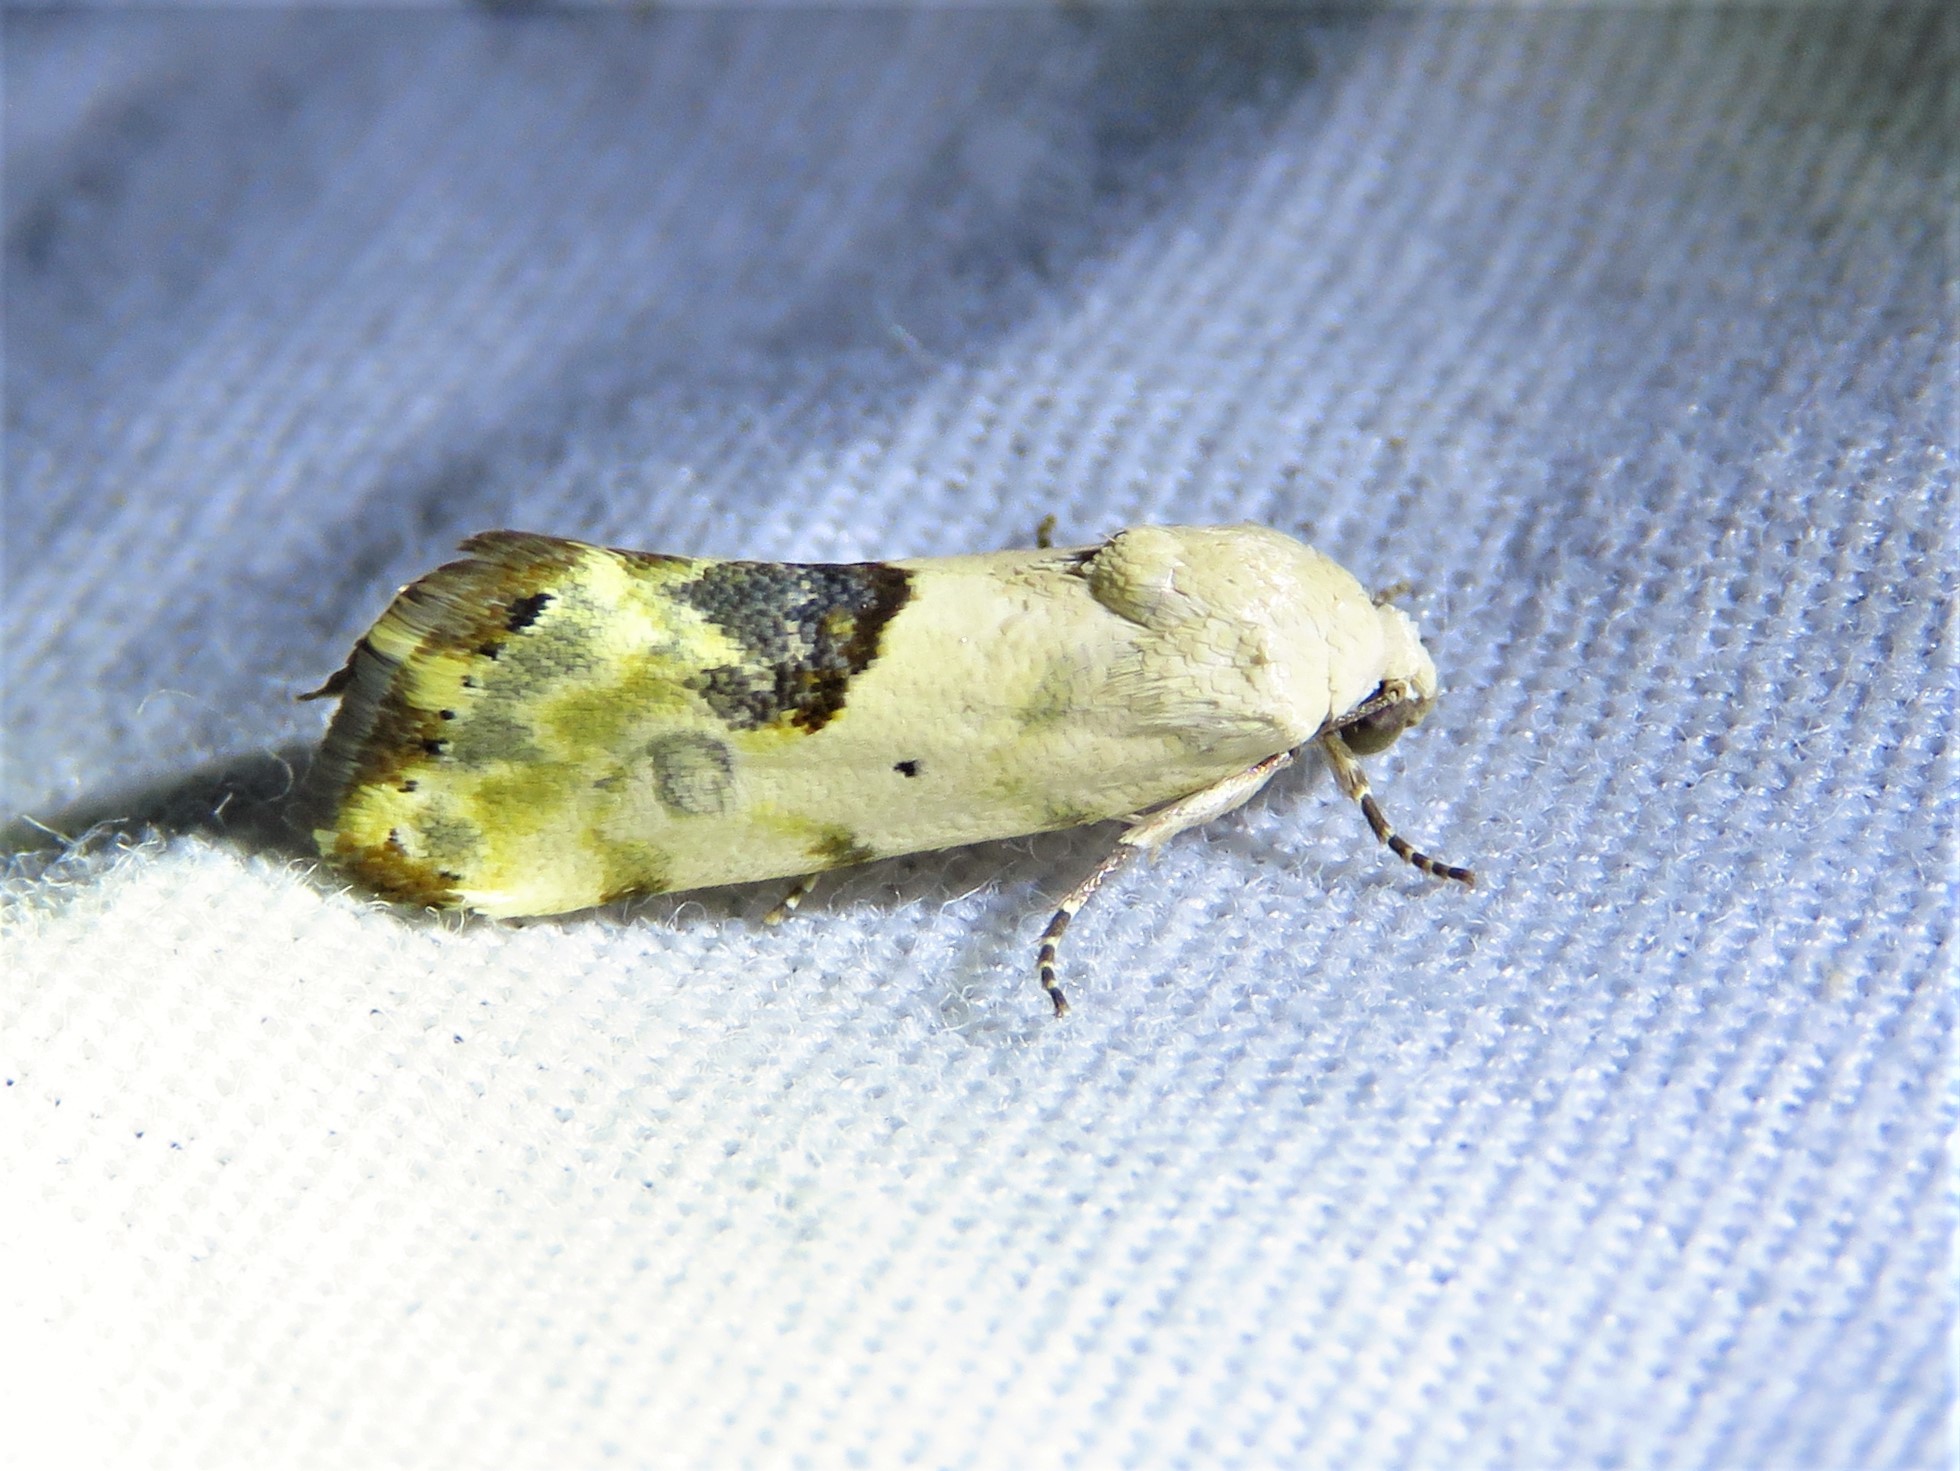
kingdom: Animalia
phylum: Arthropoda
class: Insecta
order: Lepidoptera
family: Noctuidae
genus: Acontia
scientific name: Acontia libedis
